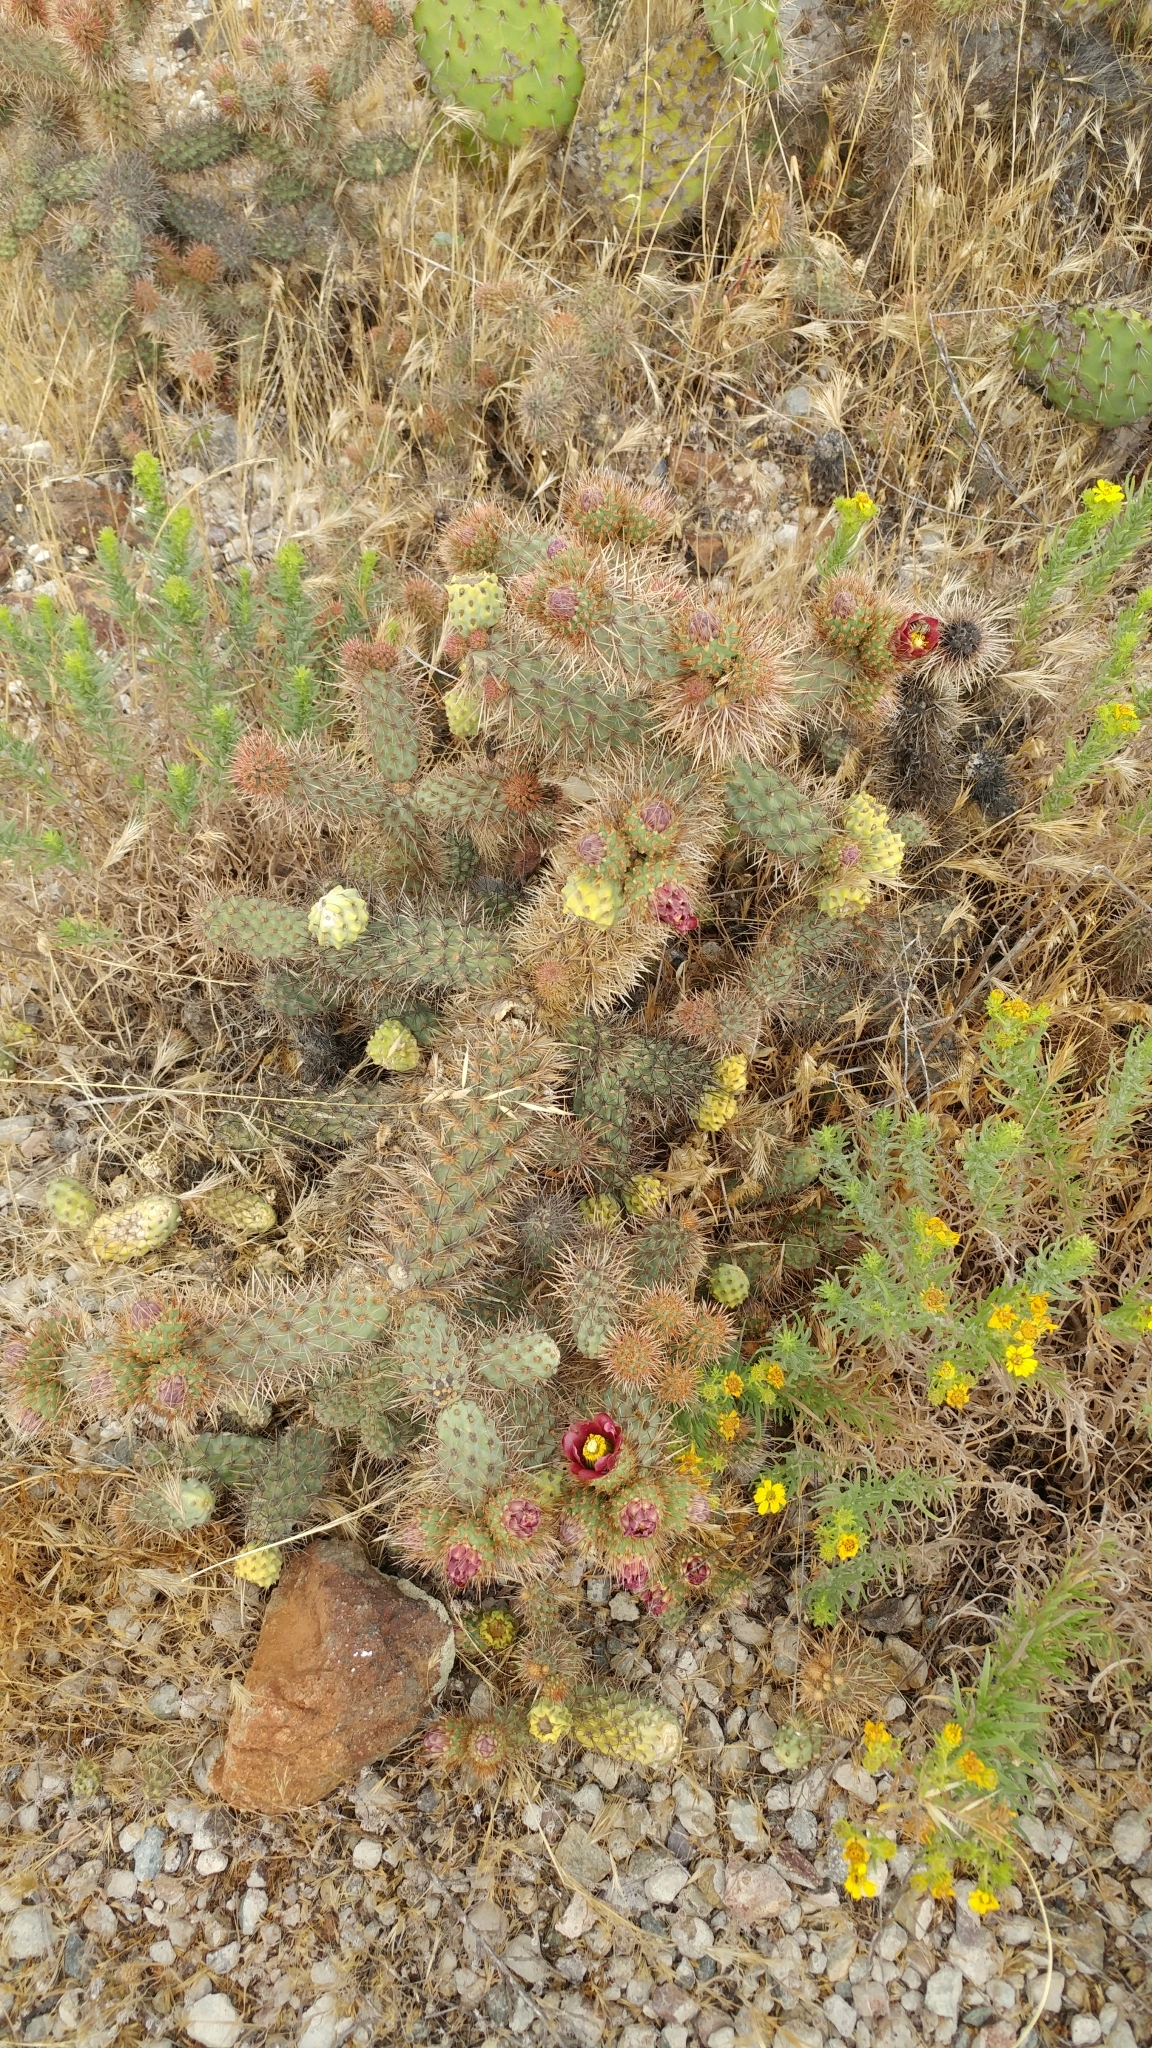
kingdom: Plantae
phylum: Tracheophyta
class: Magnoliopsida
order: Caryophyllales
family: Cactaceae
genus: Cylindropuntia
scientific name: Cylindropuntia prolifera
